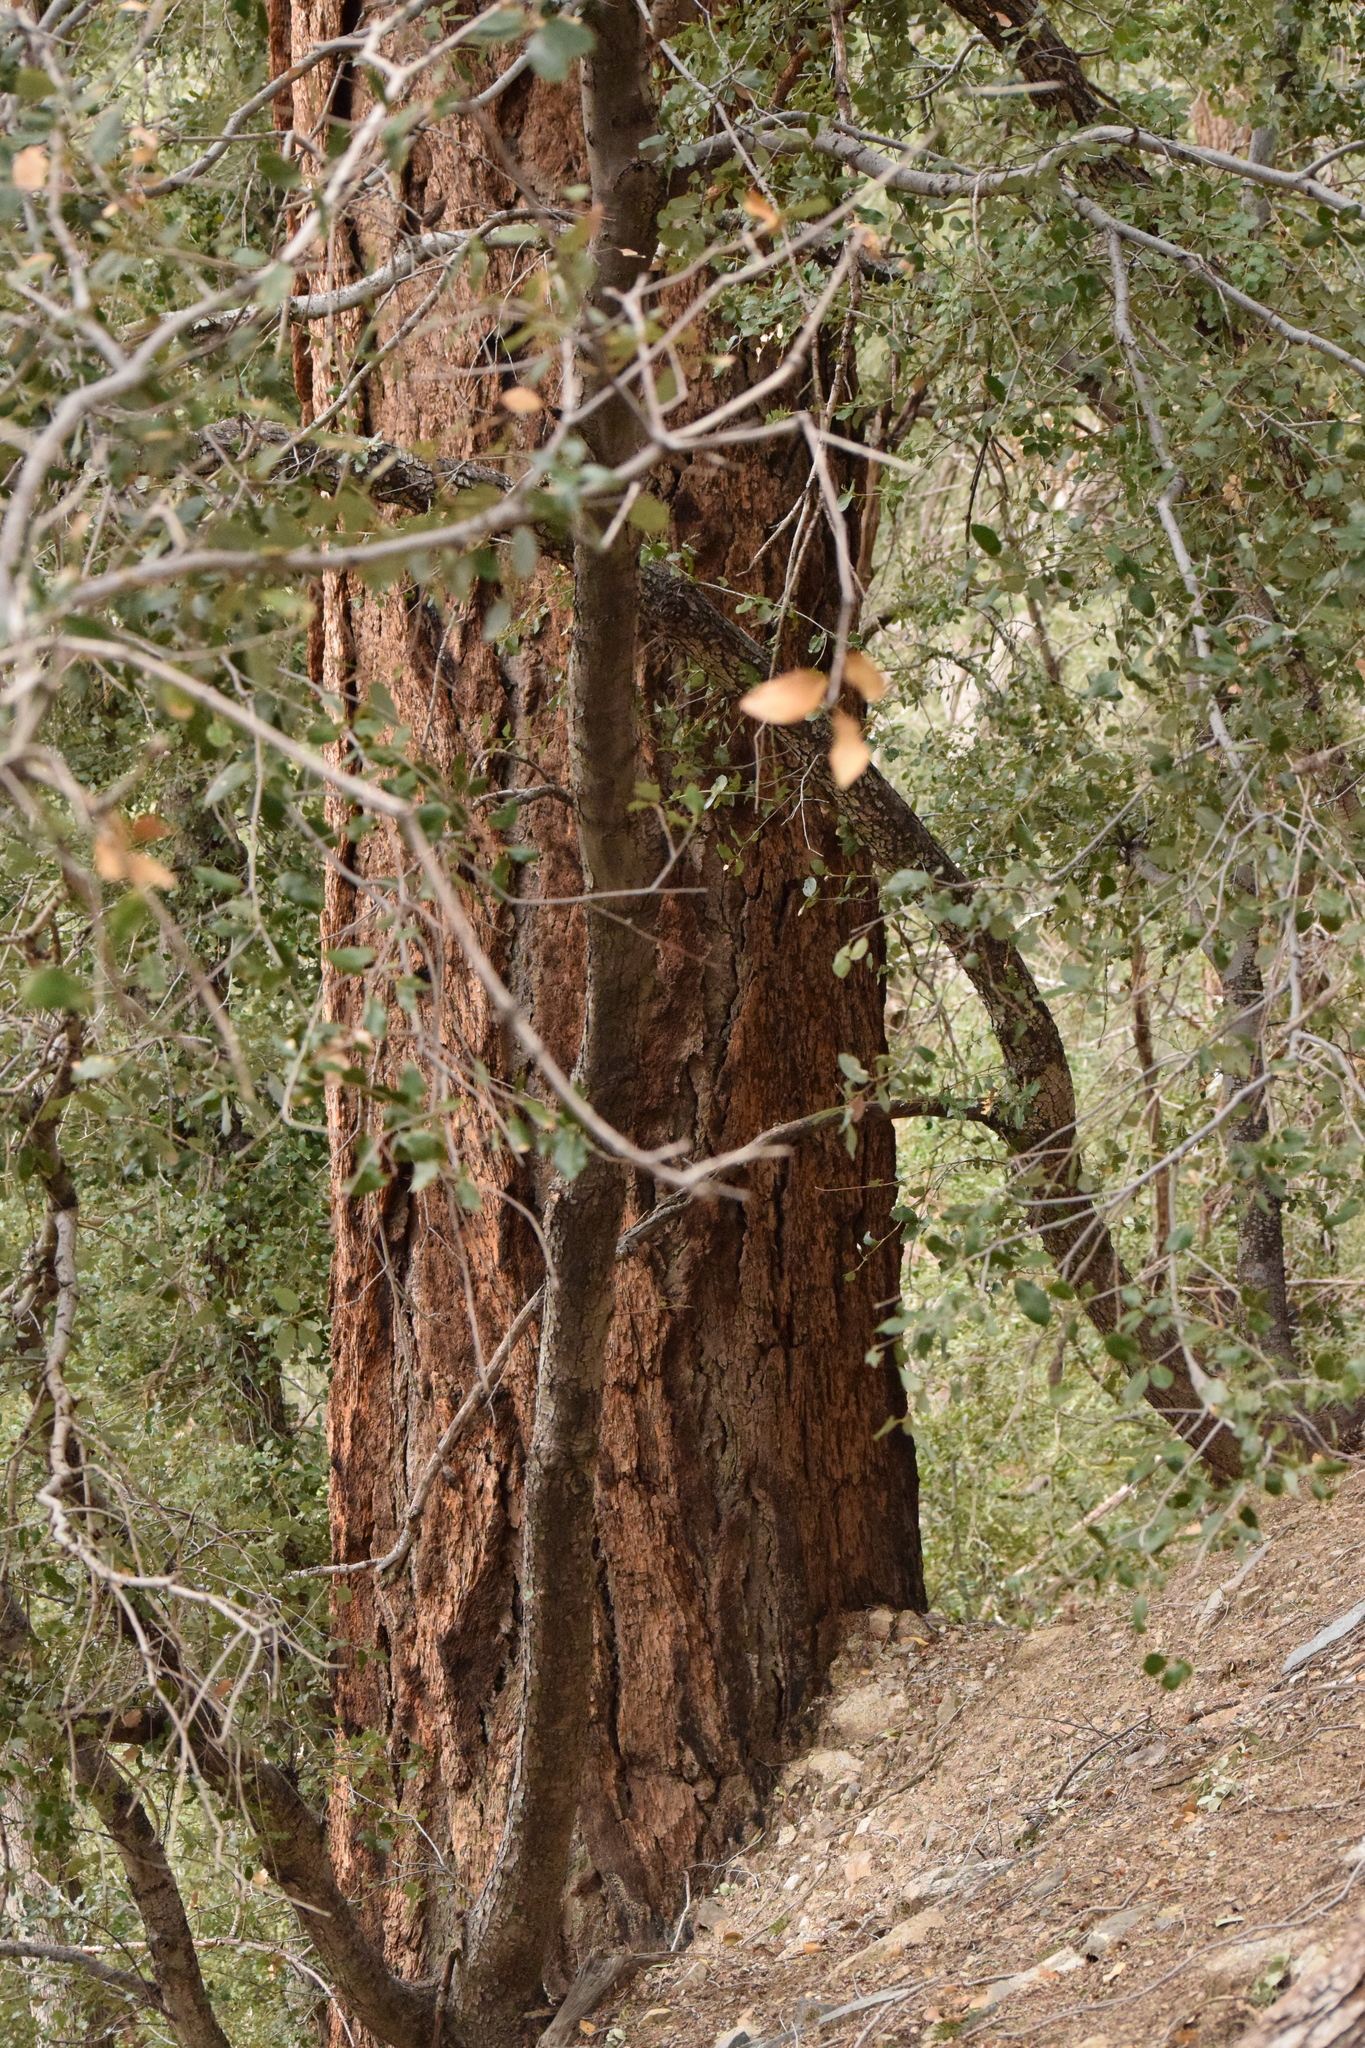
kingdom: Plantae
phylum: Tracheophyta
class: Pinopsida
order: Pinales
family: Pinaceae
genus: Pseudotsuga
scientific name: Pseudotsuga macrocarpa
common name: Big-cone douglas-fir
